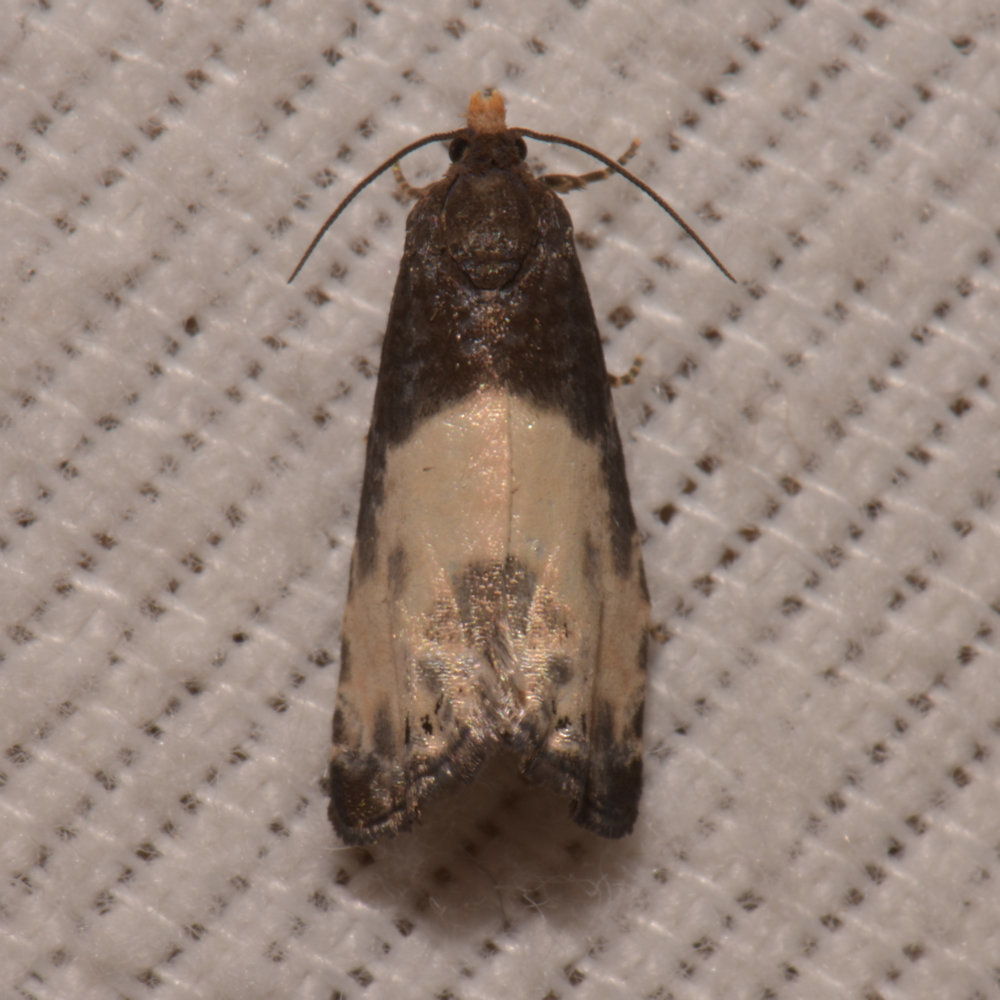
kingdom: Animalia
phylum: Arthropoda
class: Insecta
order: Lepidoptera
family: Tortricidae
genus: Notocelia
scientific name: Notocelia cynosbatella
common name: Yellow-faced bell moth
